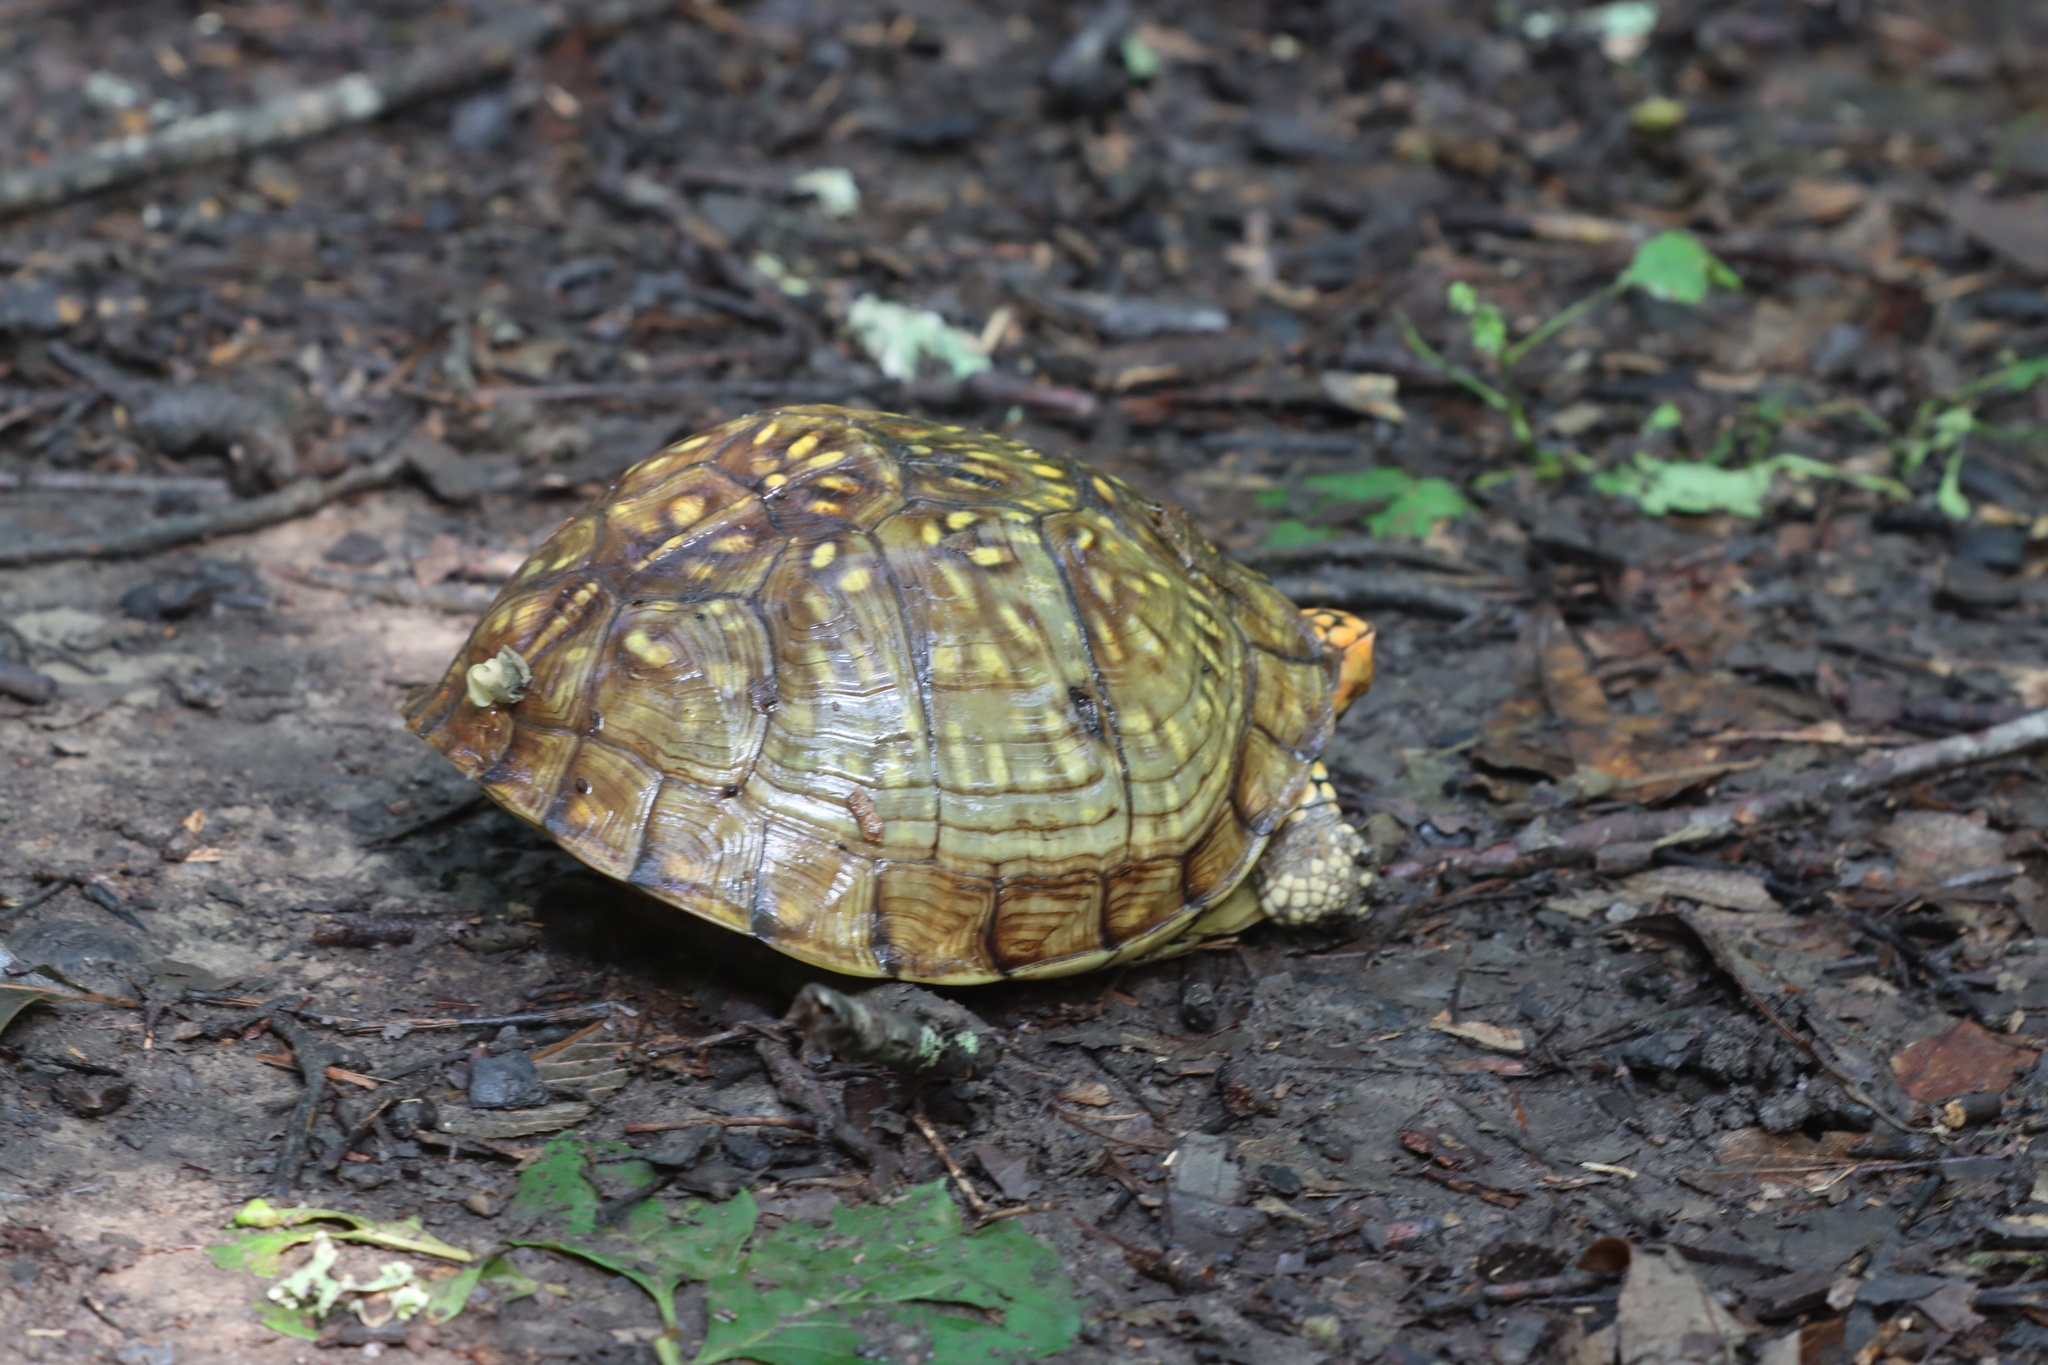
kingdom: Animalia
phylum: Chordata
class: Testudines
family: Emydidae
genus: Terrapene
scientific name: Terrapene carolina
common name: Common box turtle
